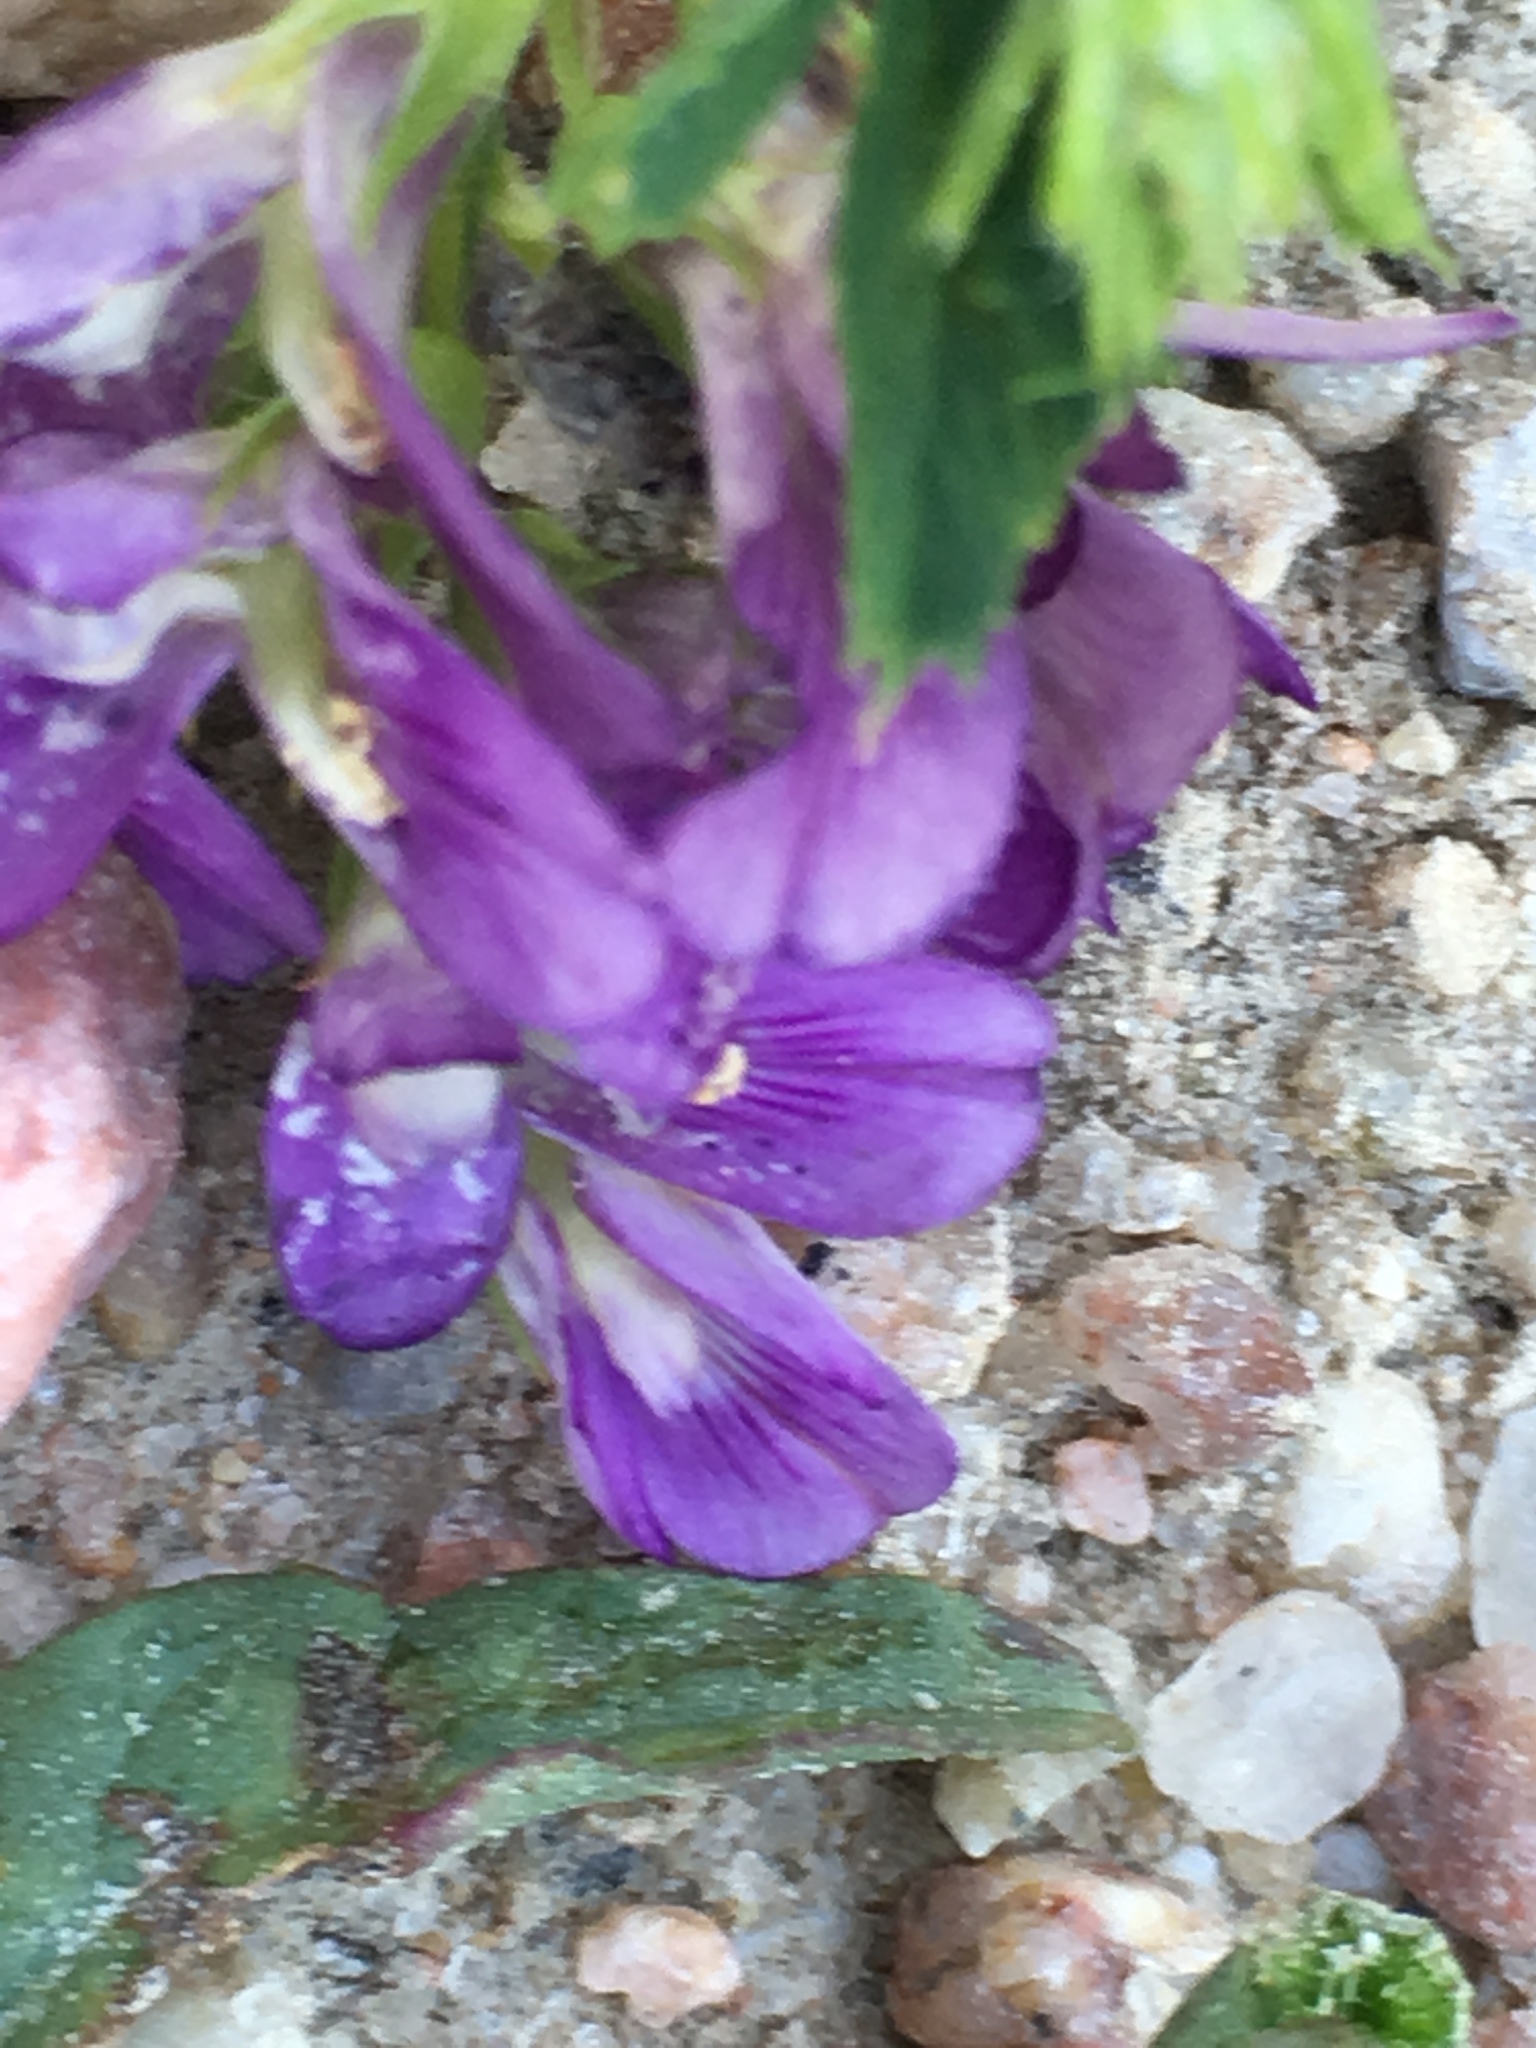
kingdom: Plantae
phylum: Tracheophyta
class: Magnoliopsida
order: Fabales
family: Fabaceae
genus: Medicago
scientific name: Medicago sativa
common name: Alfalfa
